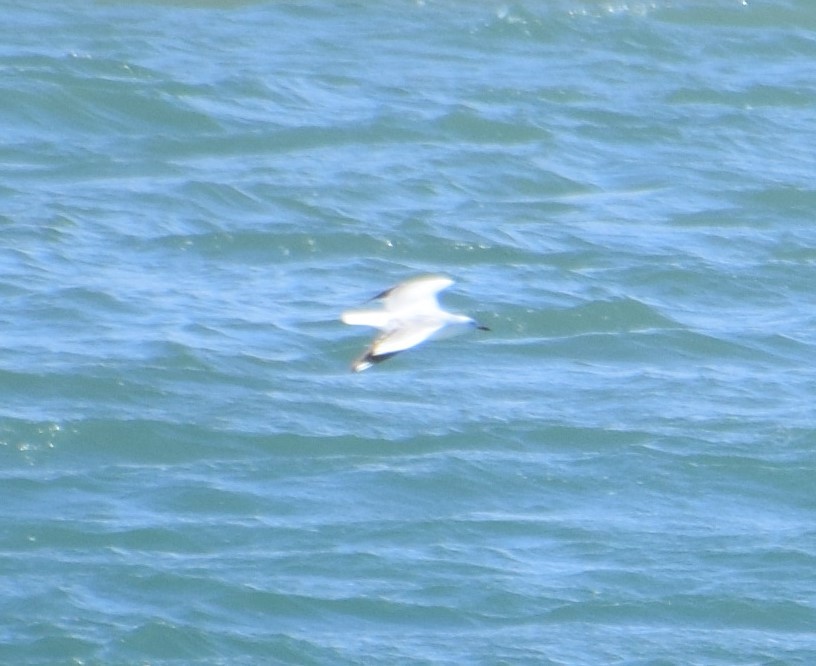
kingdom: Animalia
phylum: Chordata
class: Aves
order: Charadriiformes
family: Laridae
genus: Chroicocephalus
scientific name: Chroicocephalus novaehollandiae
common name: Silver gull
